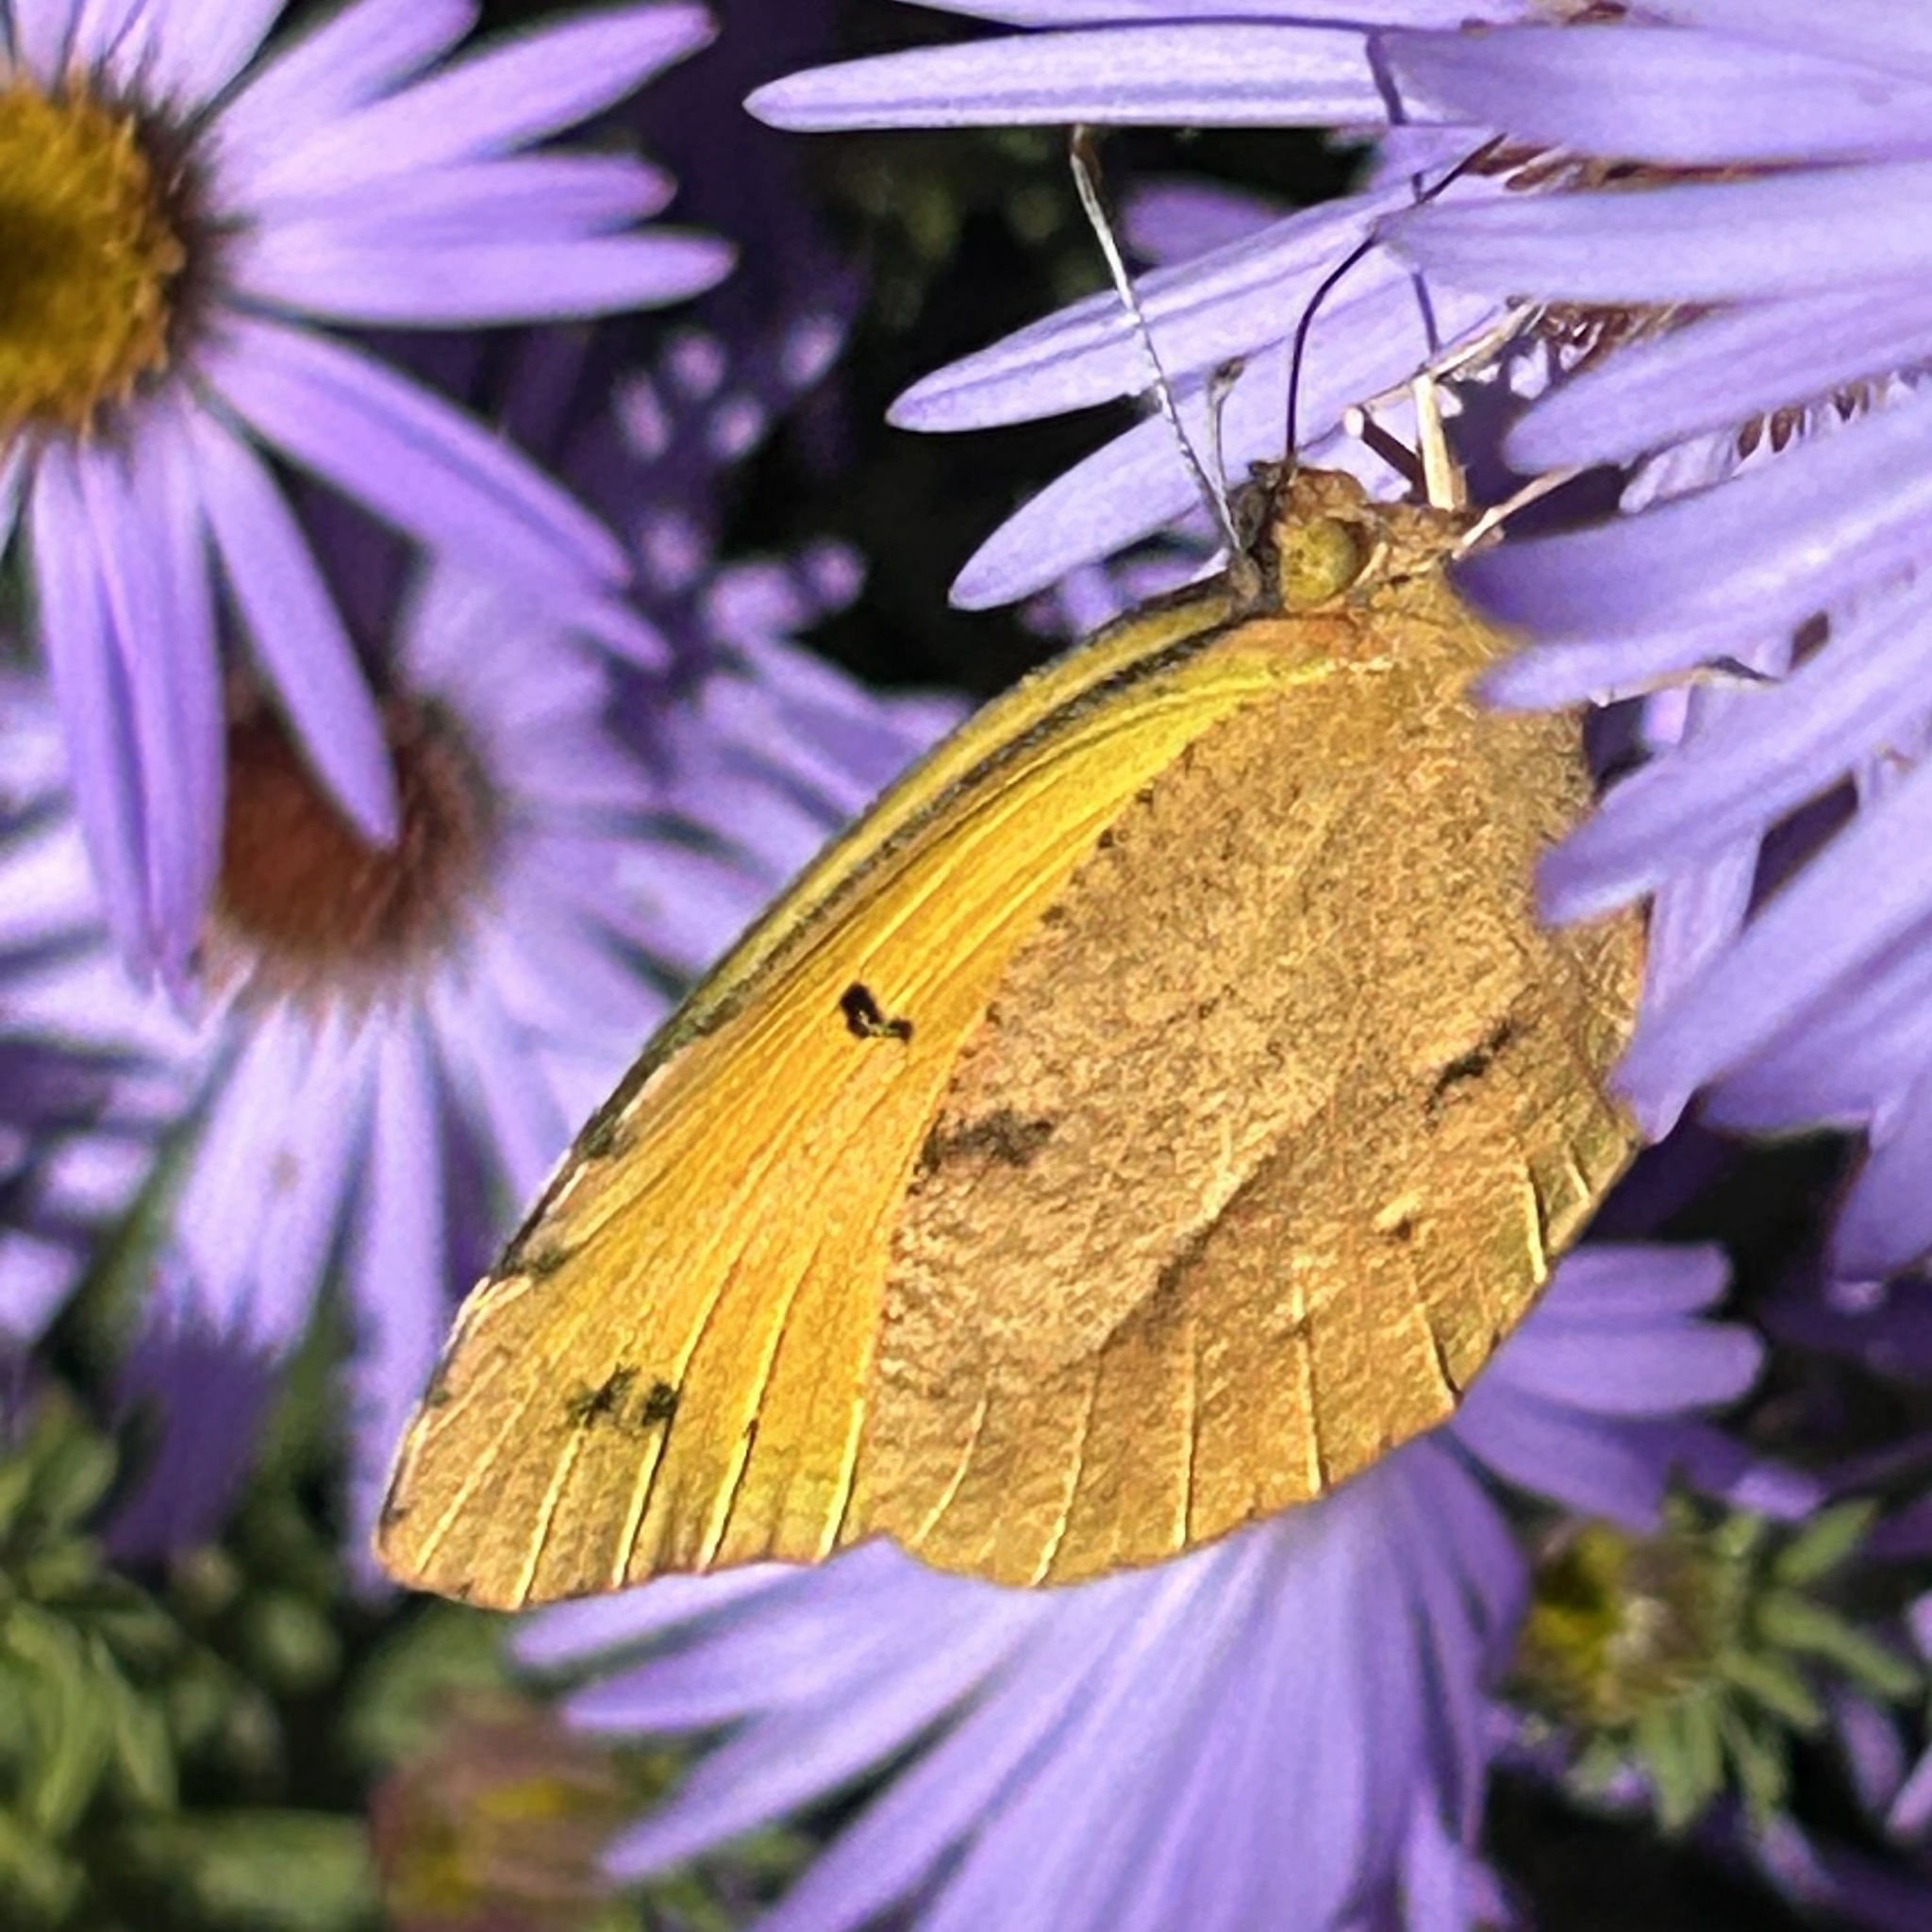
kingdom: Animalia
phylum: Arthropoda
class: Insecta
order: Lepidoptera
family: Pieridae
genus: Abaeis
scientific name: Abaeis nicippe
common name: Sleepy orange
